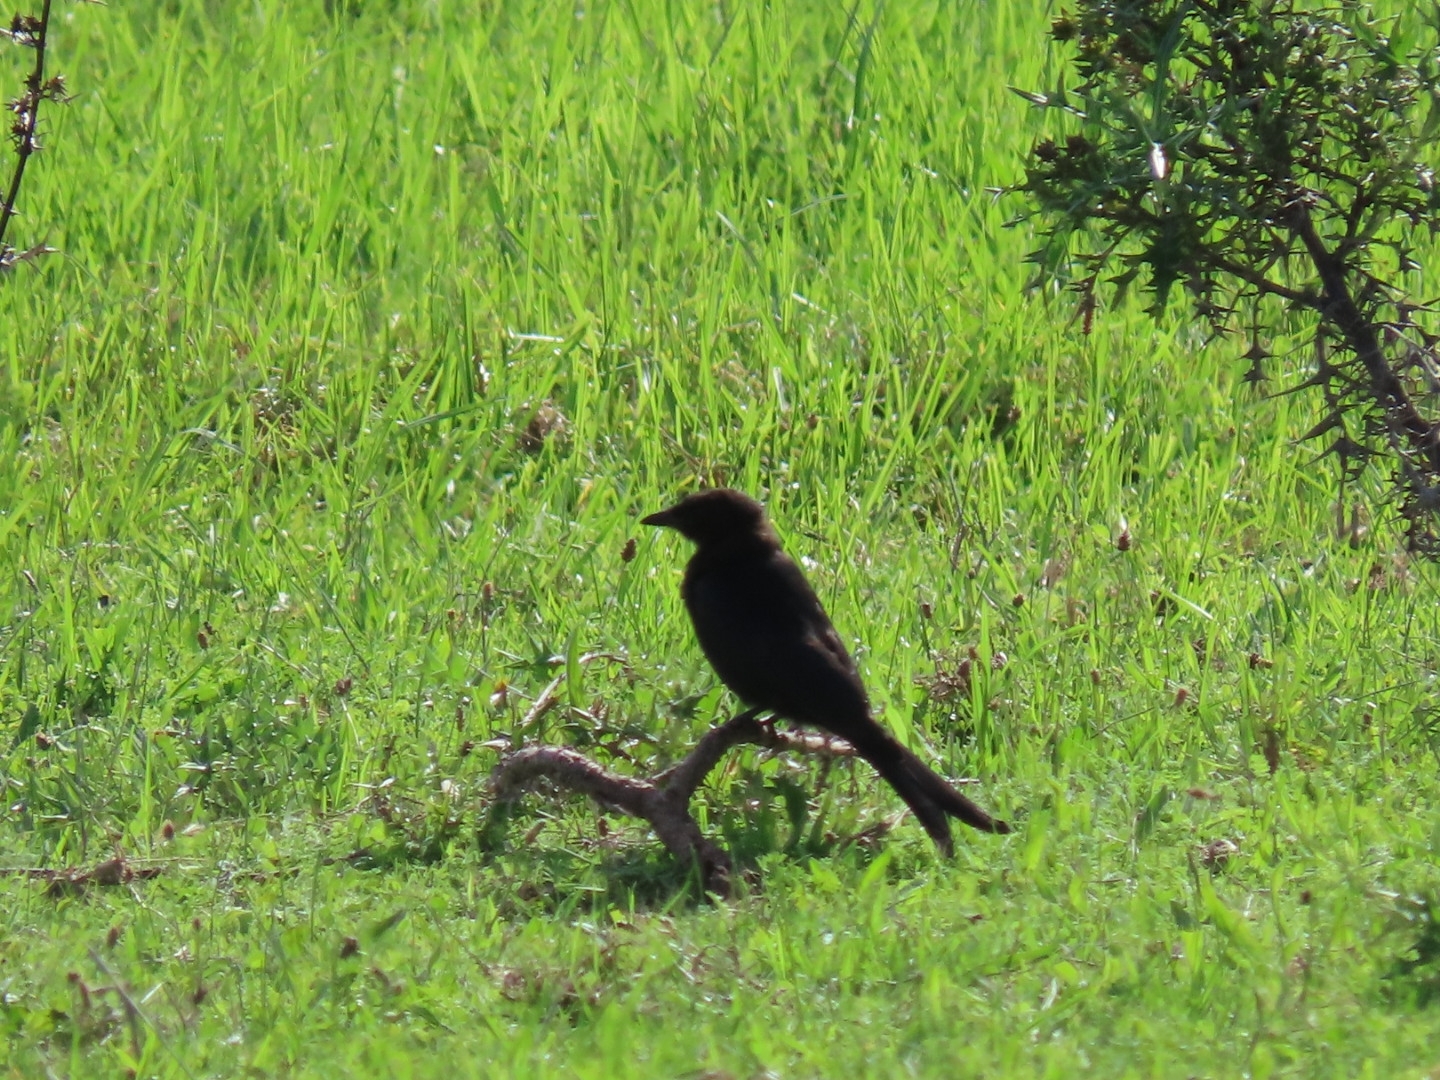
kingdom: Animalia
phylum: Chordata
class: Aves
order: Passeriformes
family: Dicruridae
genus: Dicrurus
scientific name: Dicrurus adsimilis
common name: Fork-tailed drongo
